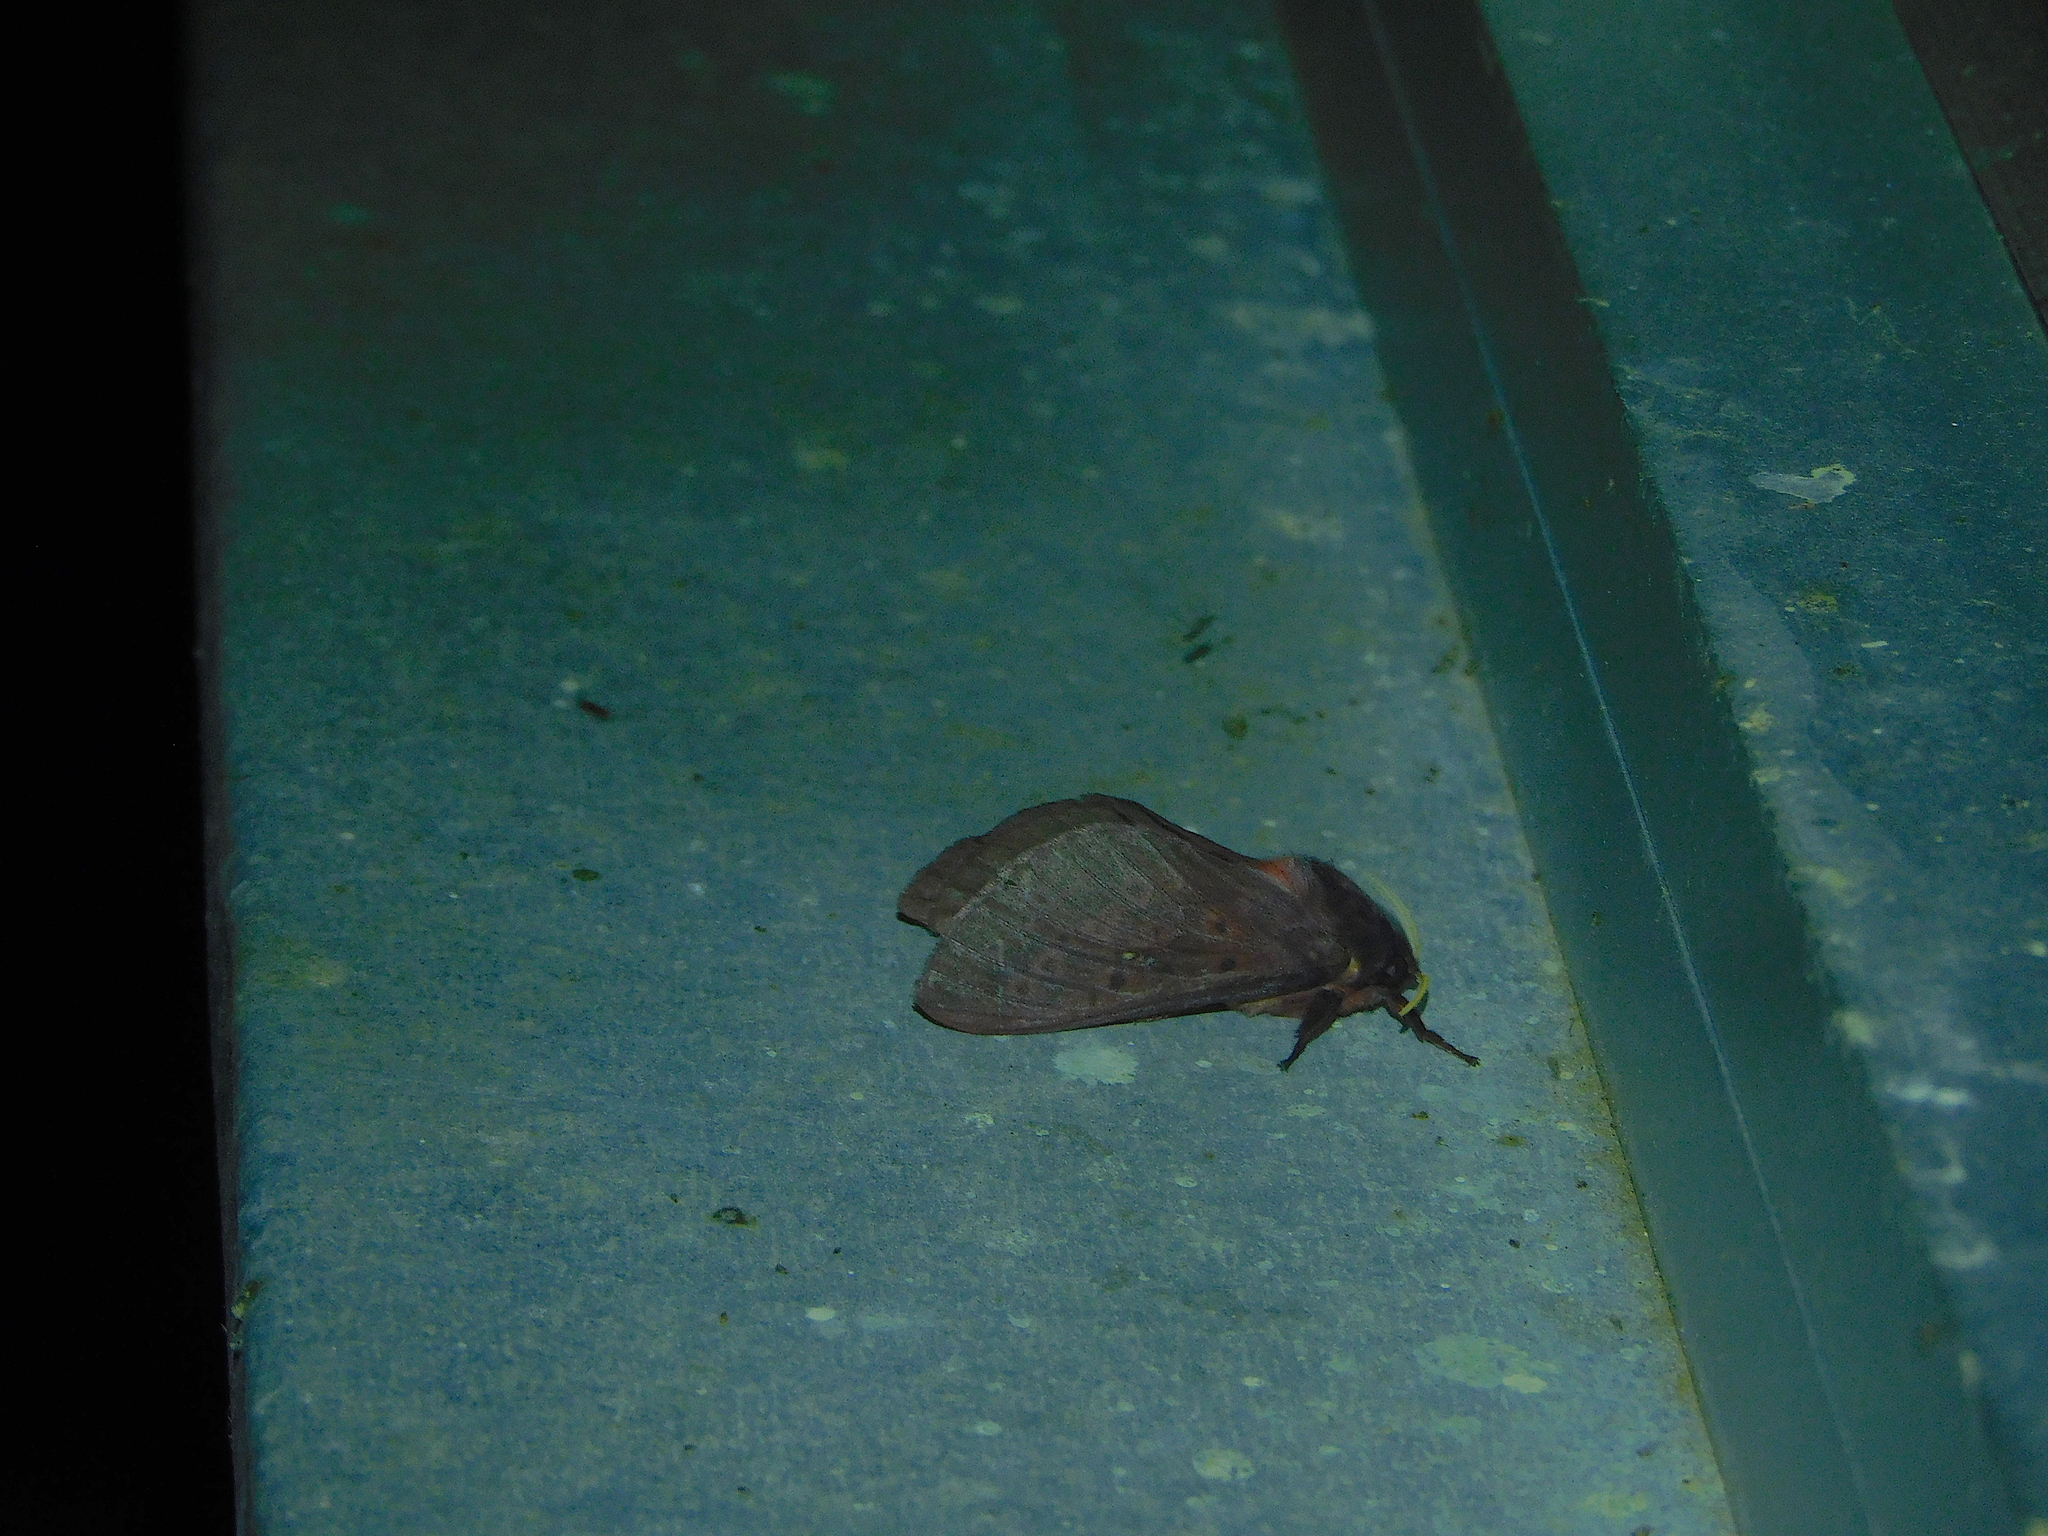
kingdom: Animalia
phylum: Arthropoda
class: Insecta
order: Lepidoptera
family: Hepialidae
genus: Oxycanus
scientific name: Oxycanus rufescens
